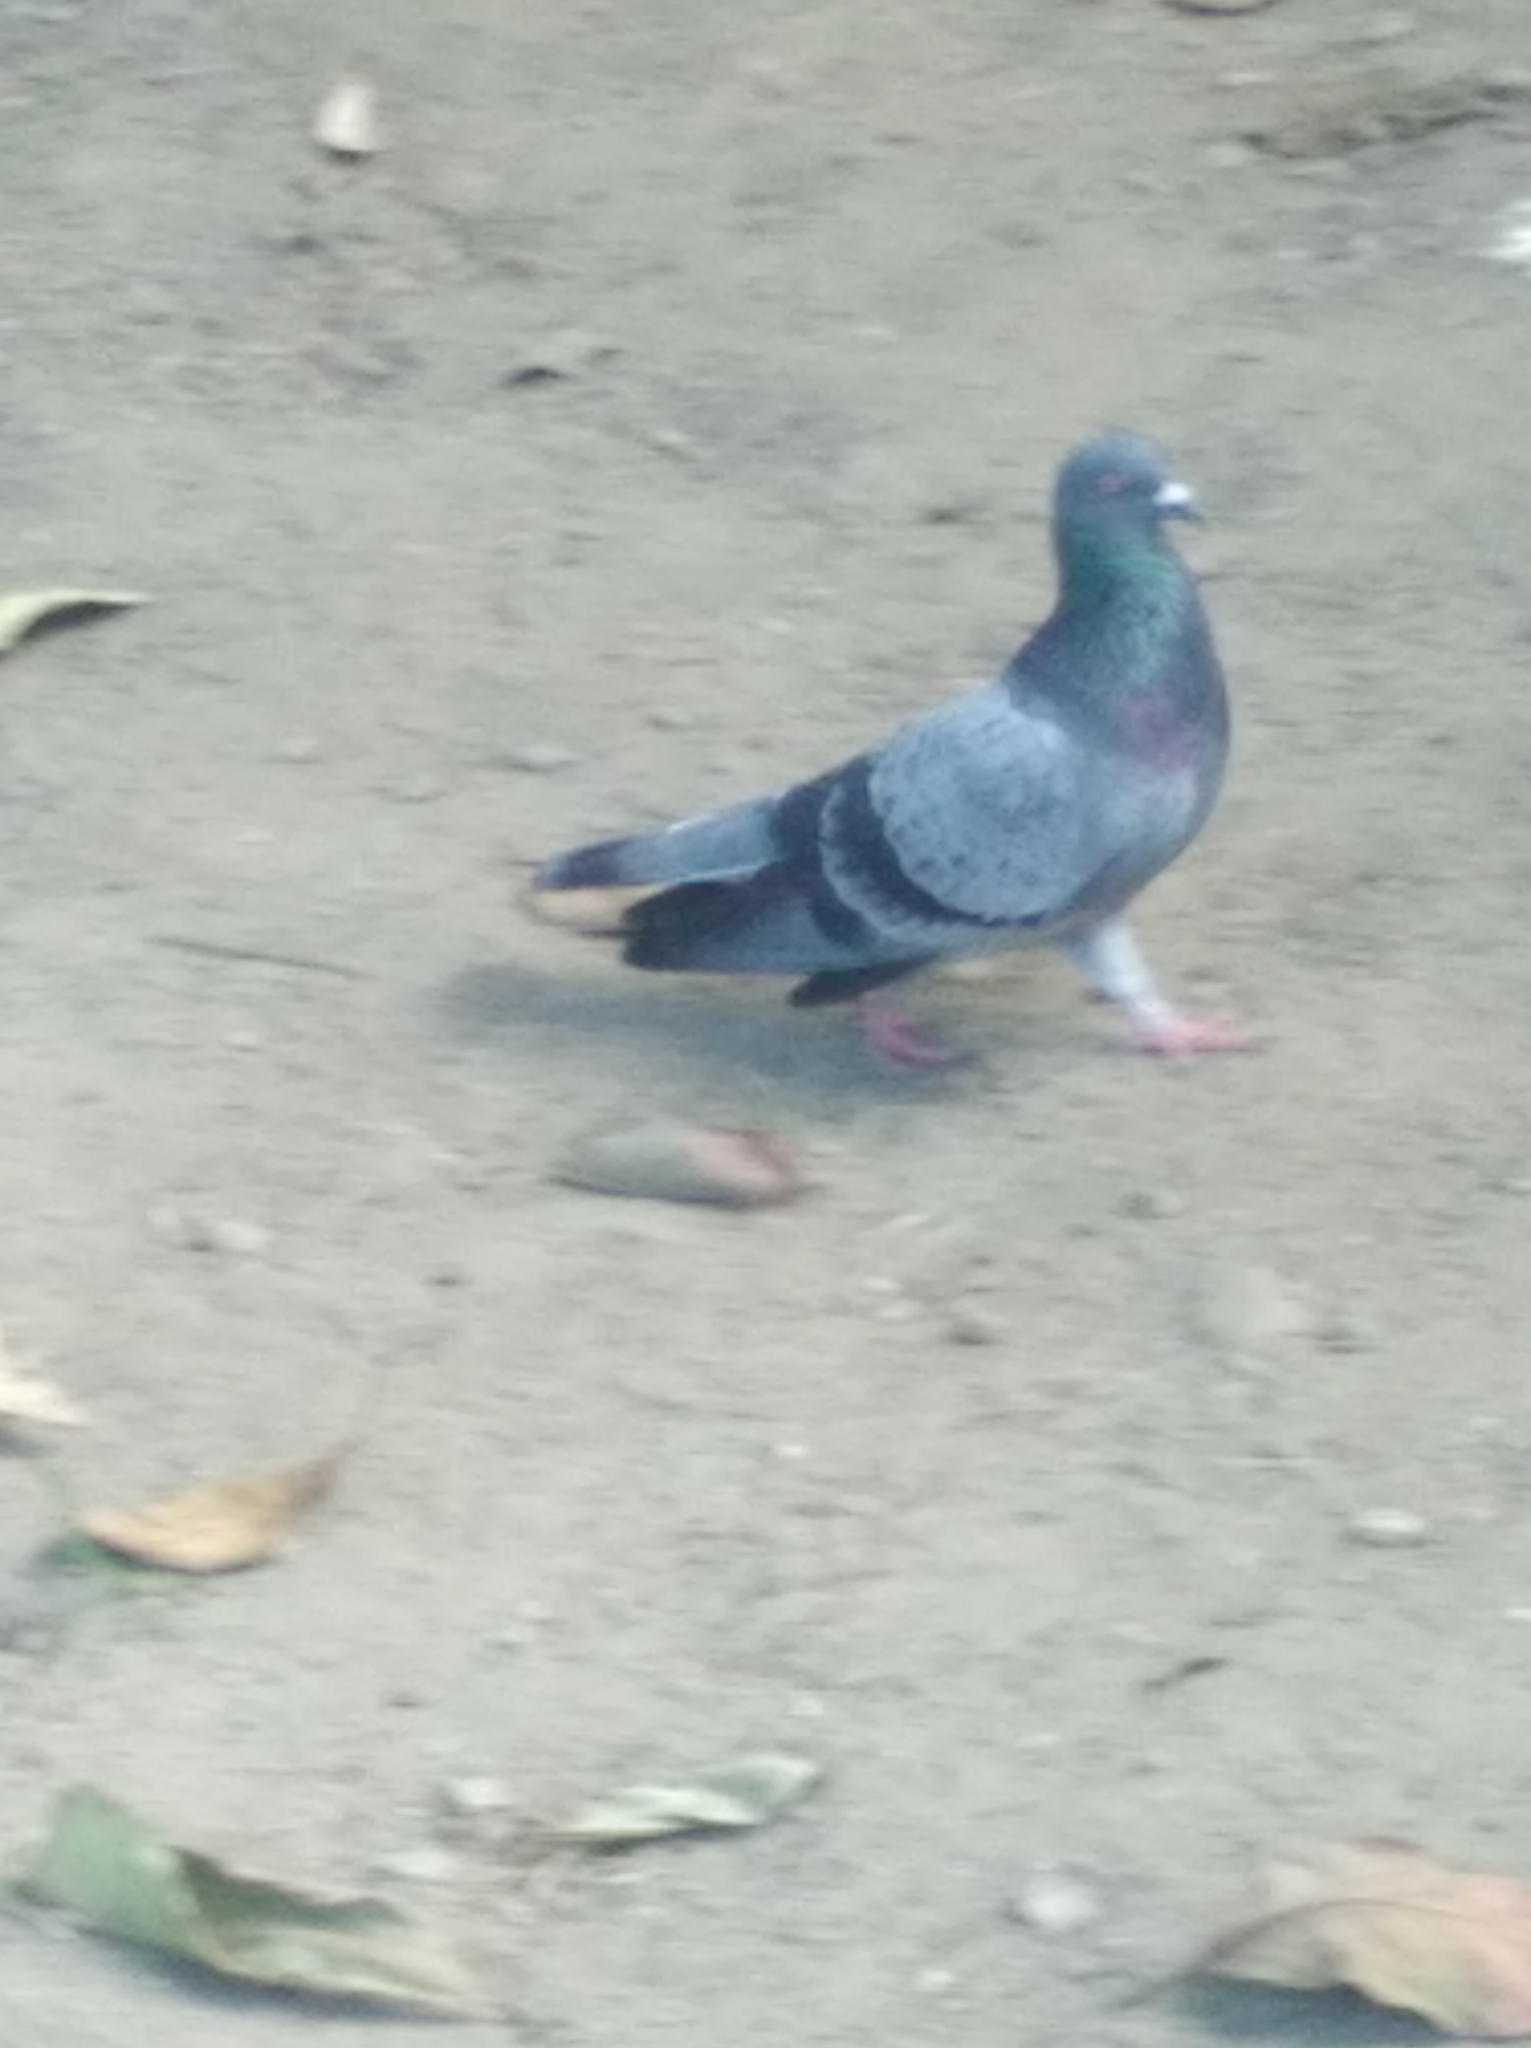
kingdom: Animalia
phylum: Chordata
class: Aves
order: Columbiformes
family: Columbidae
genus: Columba
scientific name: Columba livia
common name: Rock pigeon
